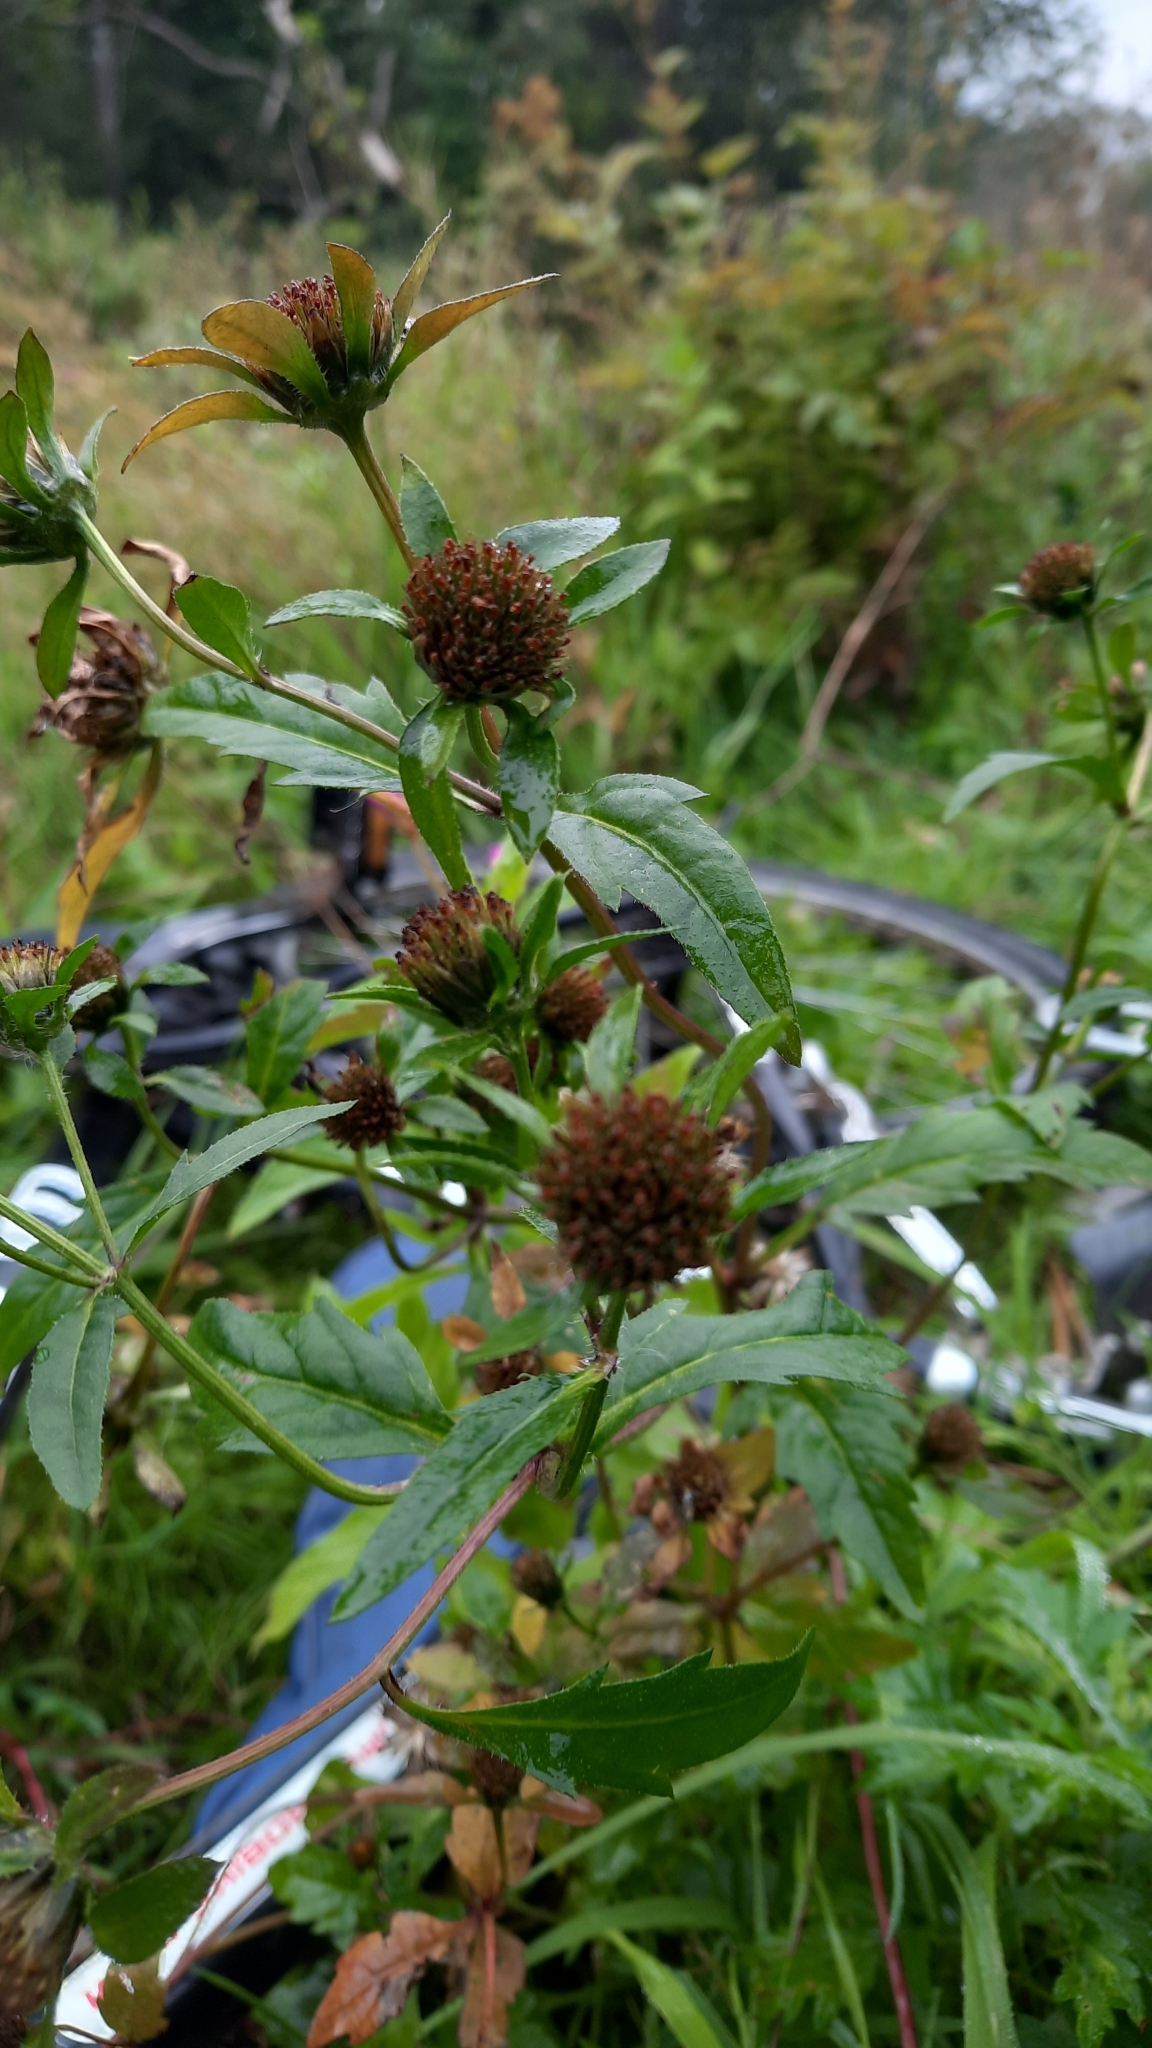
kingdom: Plantae
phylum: Tracheophyta
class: Magnoliopsida
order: Asterales
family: Asteraceae
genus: Bidens
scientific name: Bidens tripartita
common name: Trifid bur-marigold
